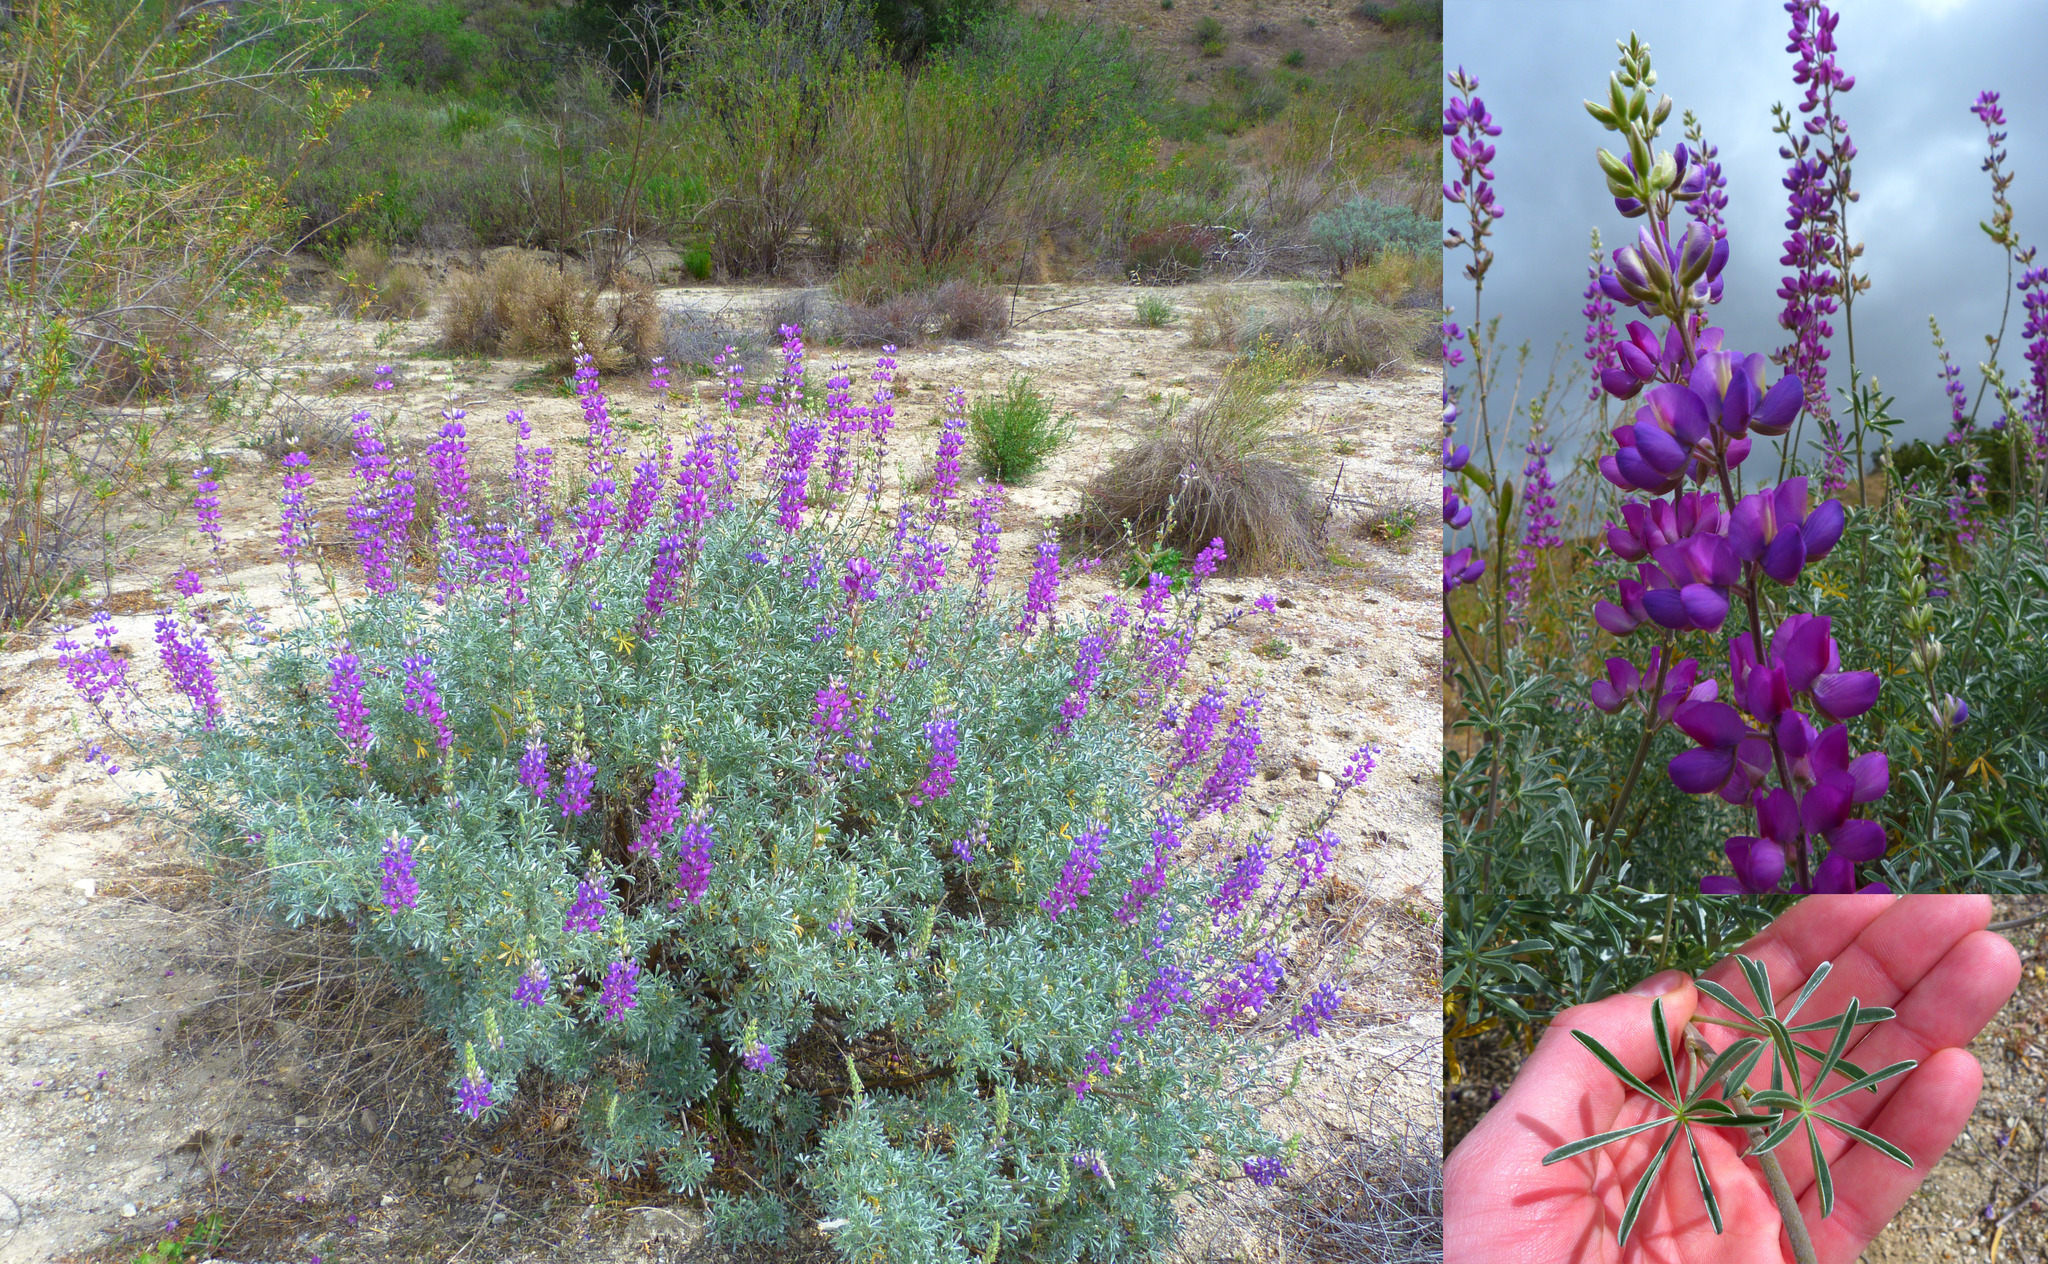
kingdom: Plantae
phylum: Tracheophyta
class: Magnoliopsida
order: Fabales
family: Fabaceae
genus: Lupinus
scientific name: Lupinus albifrons
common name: Foothill lupine
